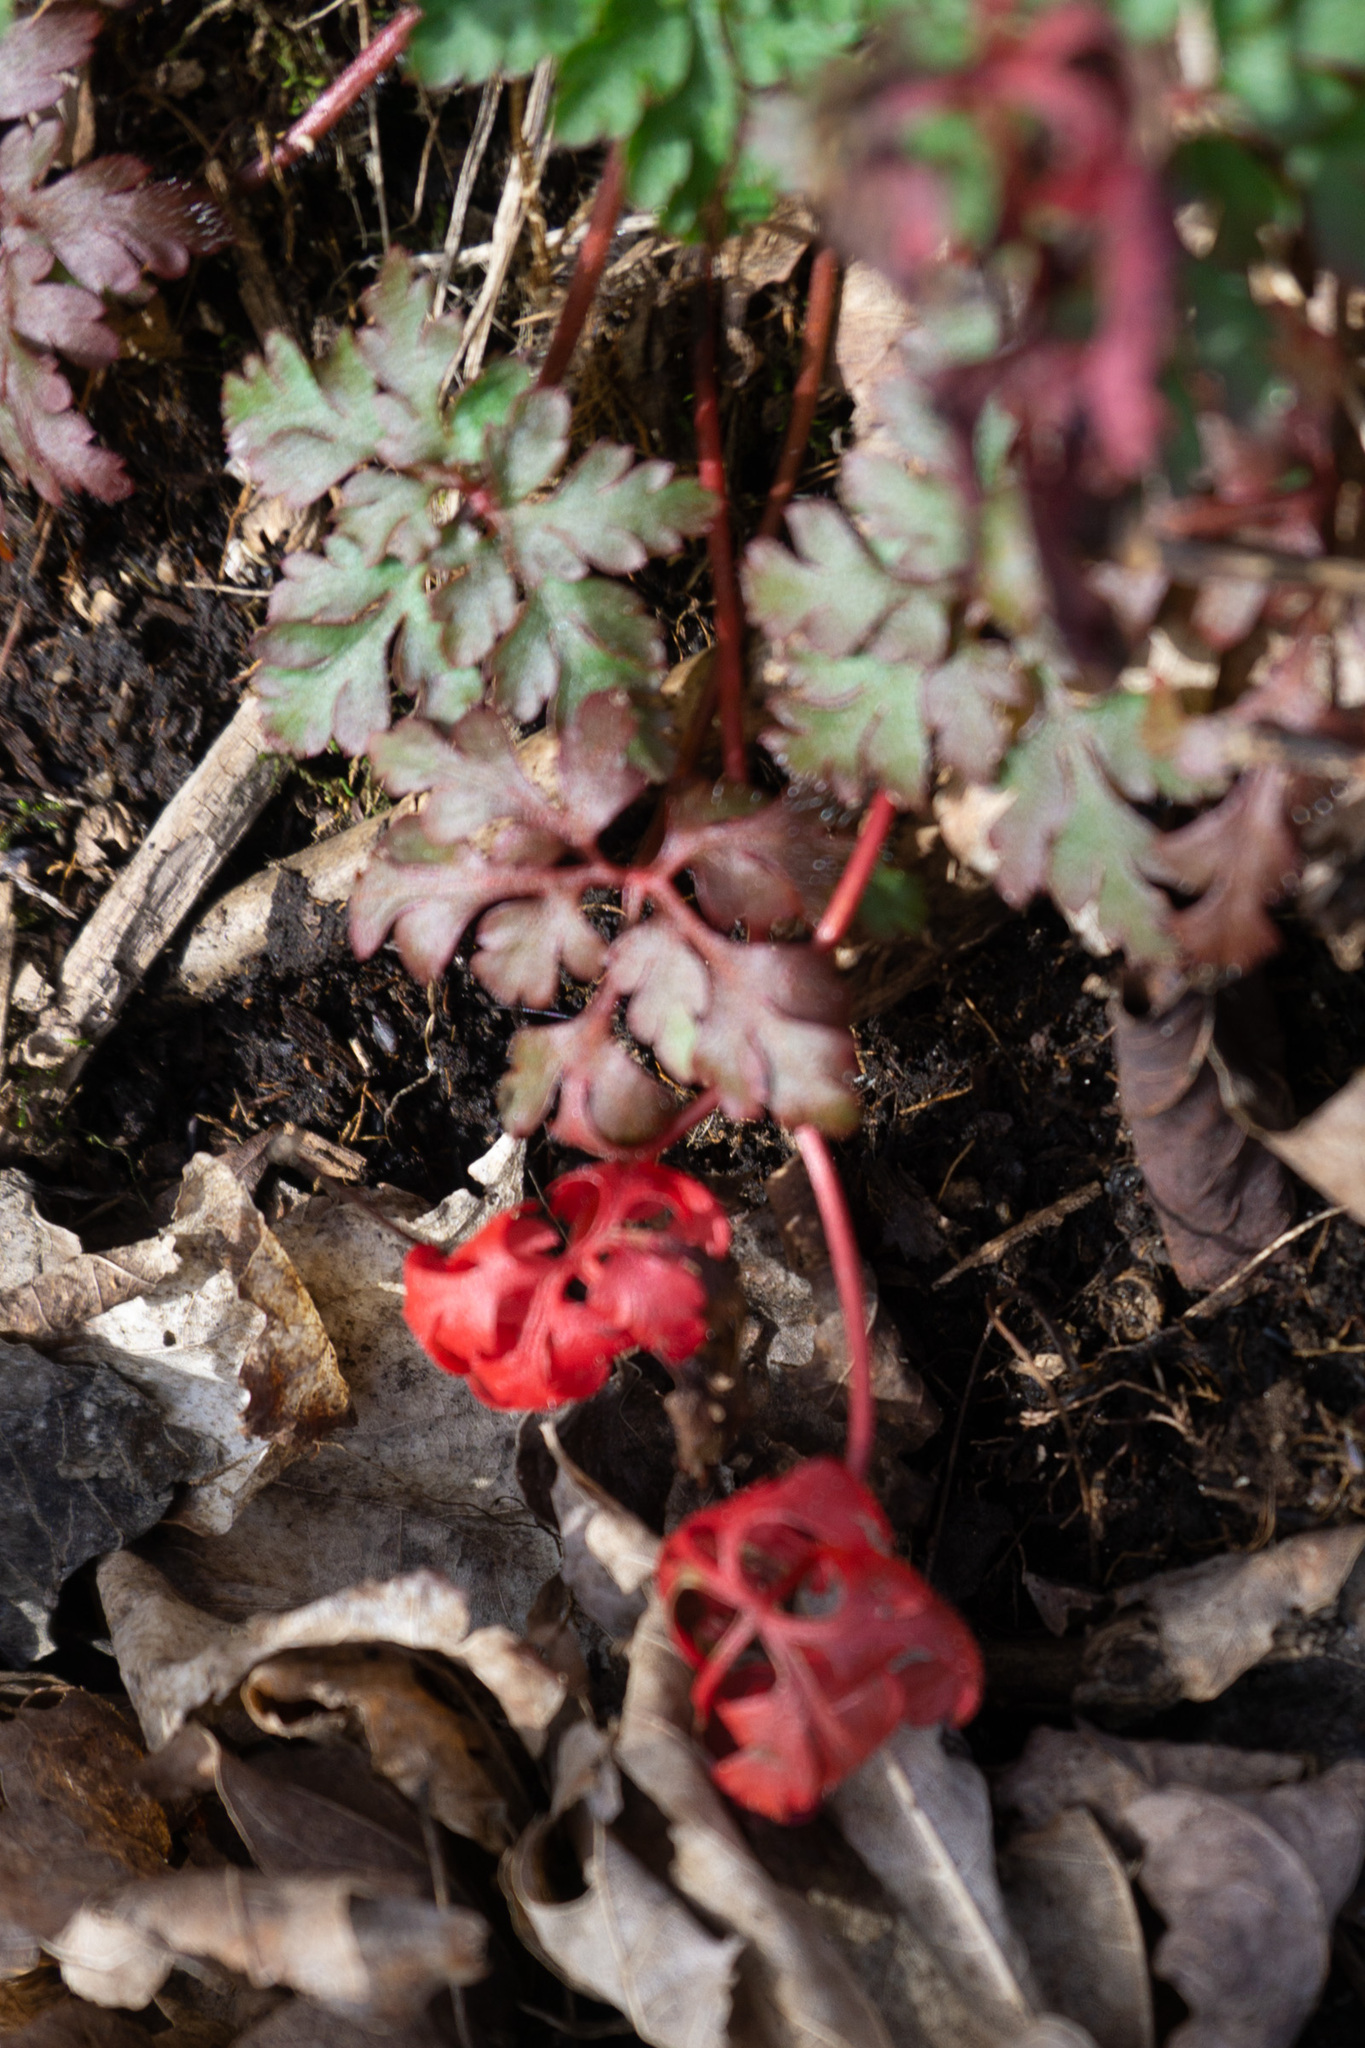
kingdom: Plantae
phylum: Tracheophyta
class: Magnoliopsida
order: Geraniales
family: Geraniaceae
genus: Geranium
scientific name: Geranium robertianum
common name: Herb-robert
